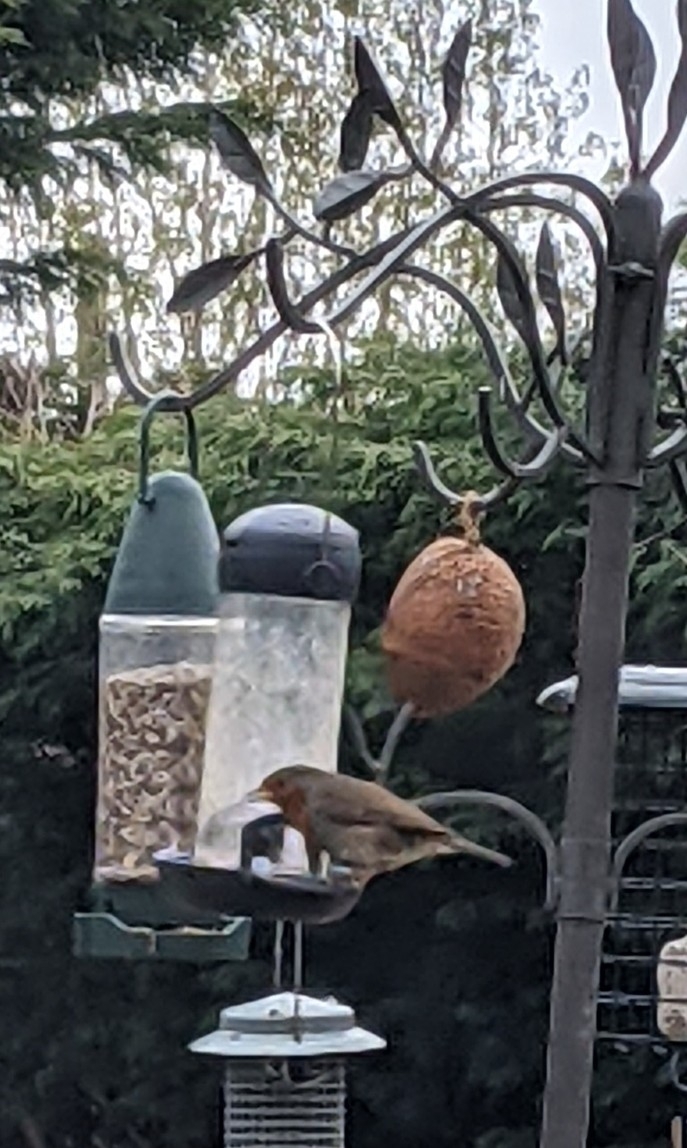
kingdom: Animalia
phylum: Chordata
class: Aves
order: Passeriformes
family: Muscicapidae
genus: Erithacus
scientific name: Erithacus rubecula
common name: European robin
